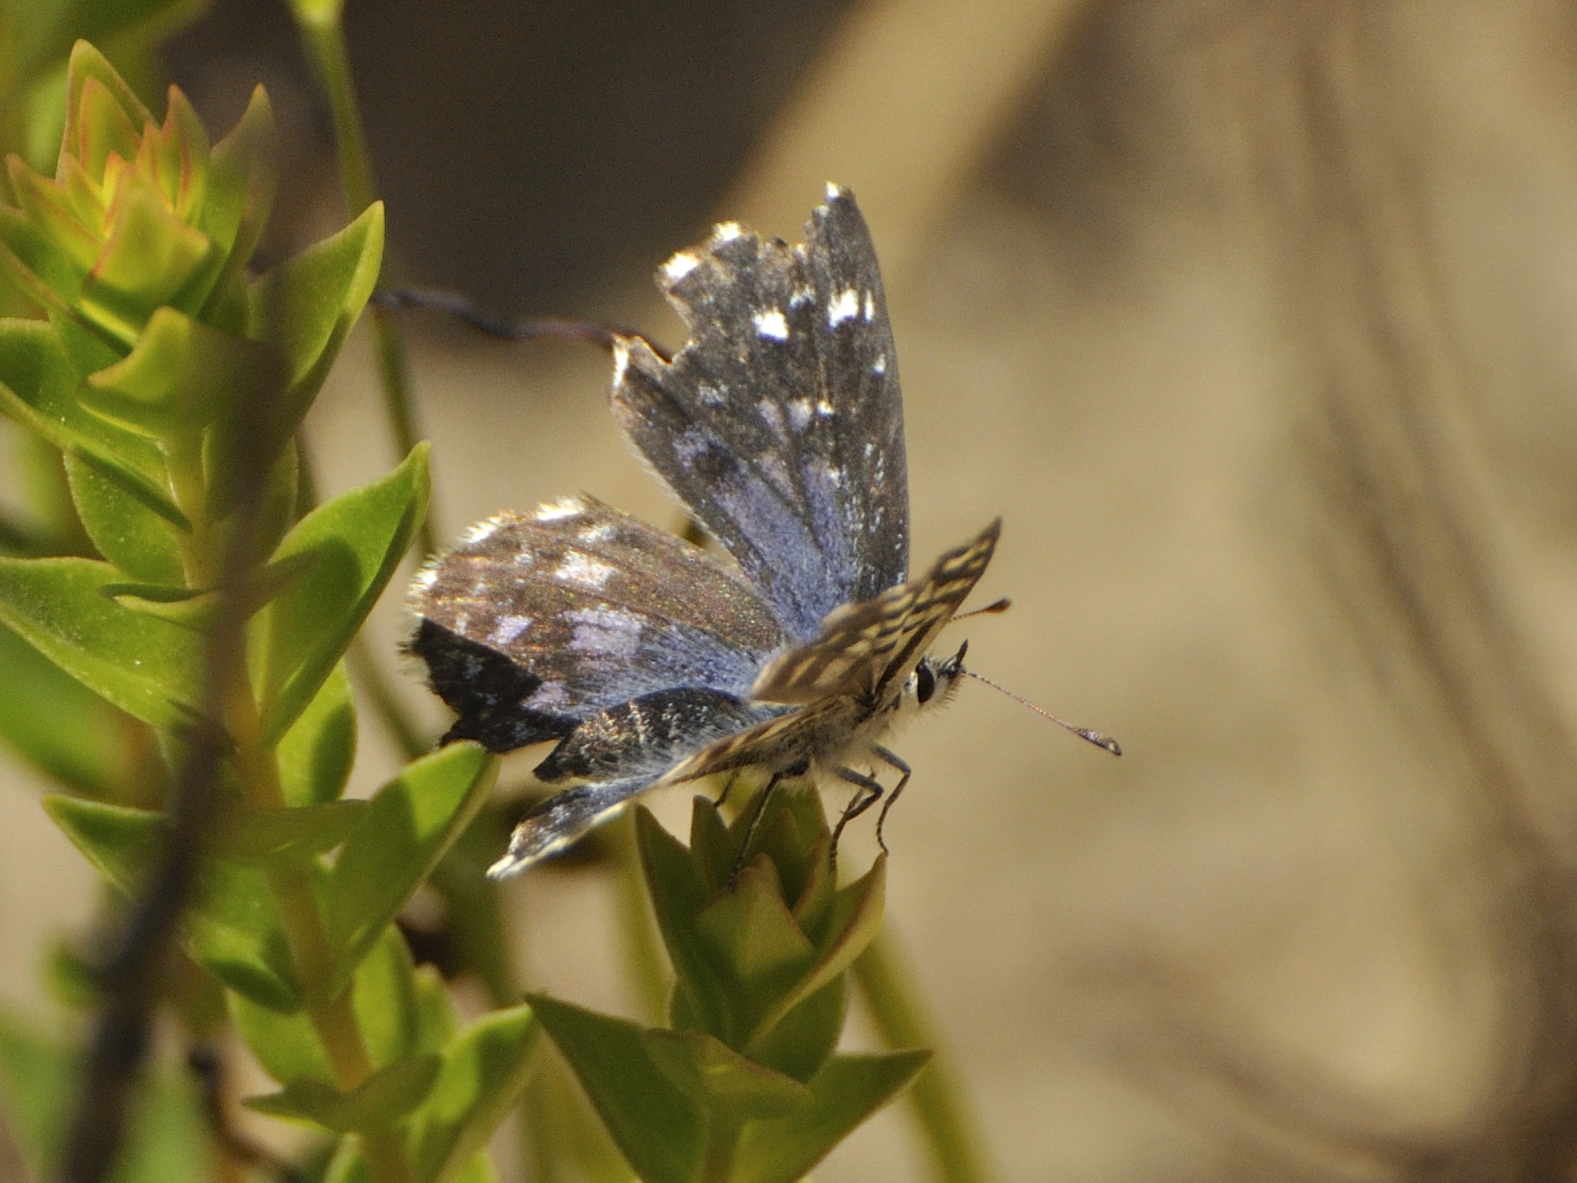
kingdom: Animalia
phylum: Arthropoda
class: Insecta
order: Lepidoptera
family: Lycaenidae
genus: Tarucus
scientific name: Tarucus thespis
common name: Vivid dotted blue
